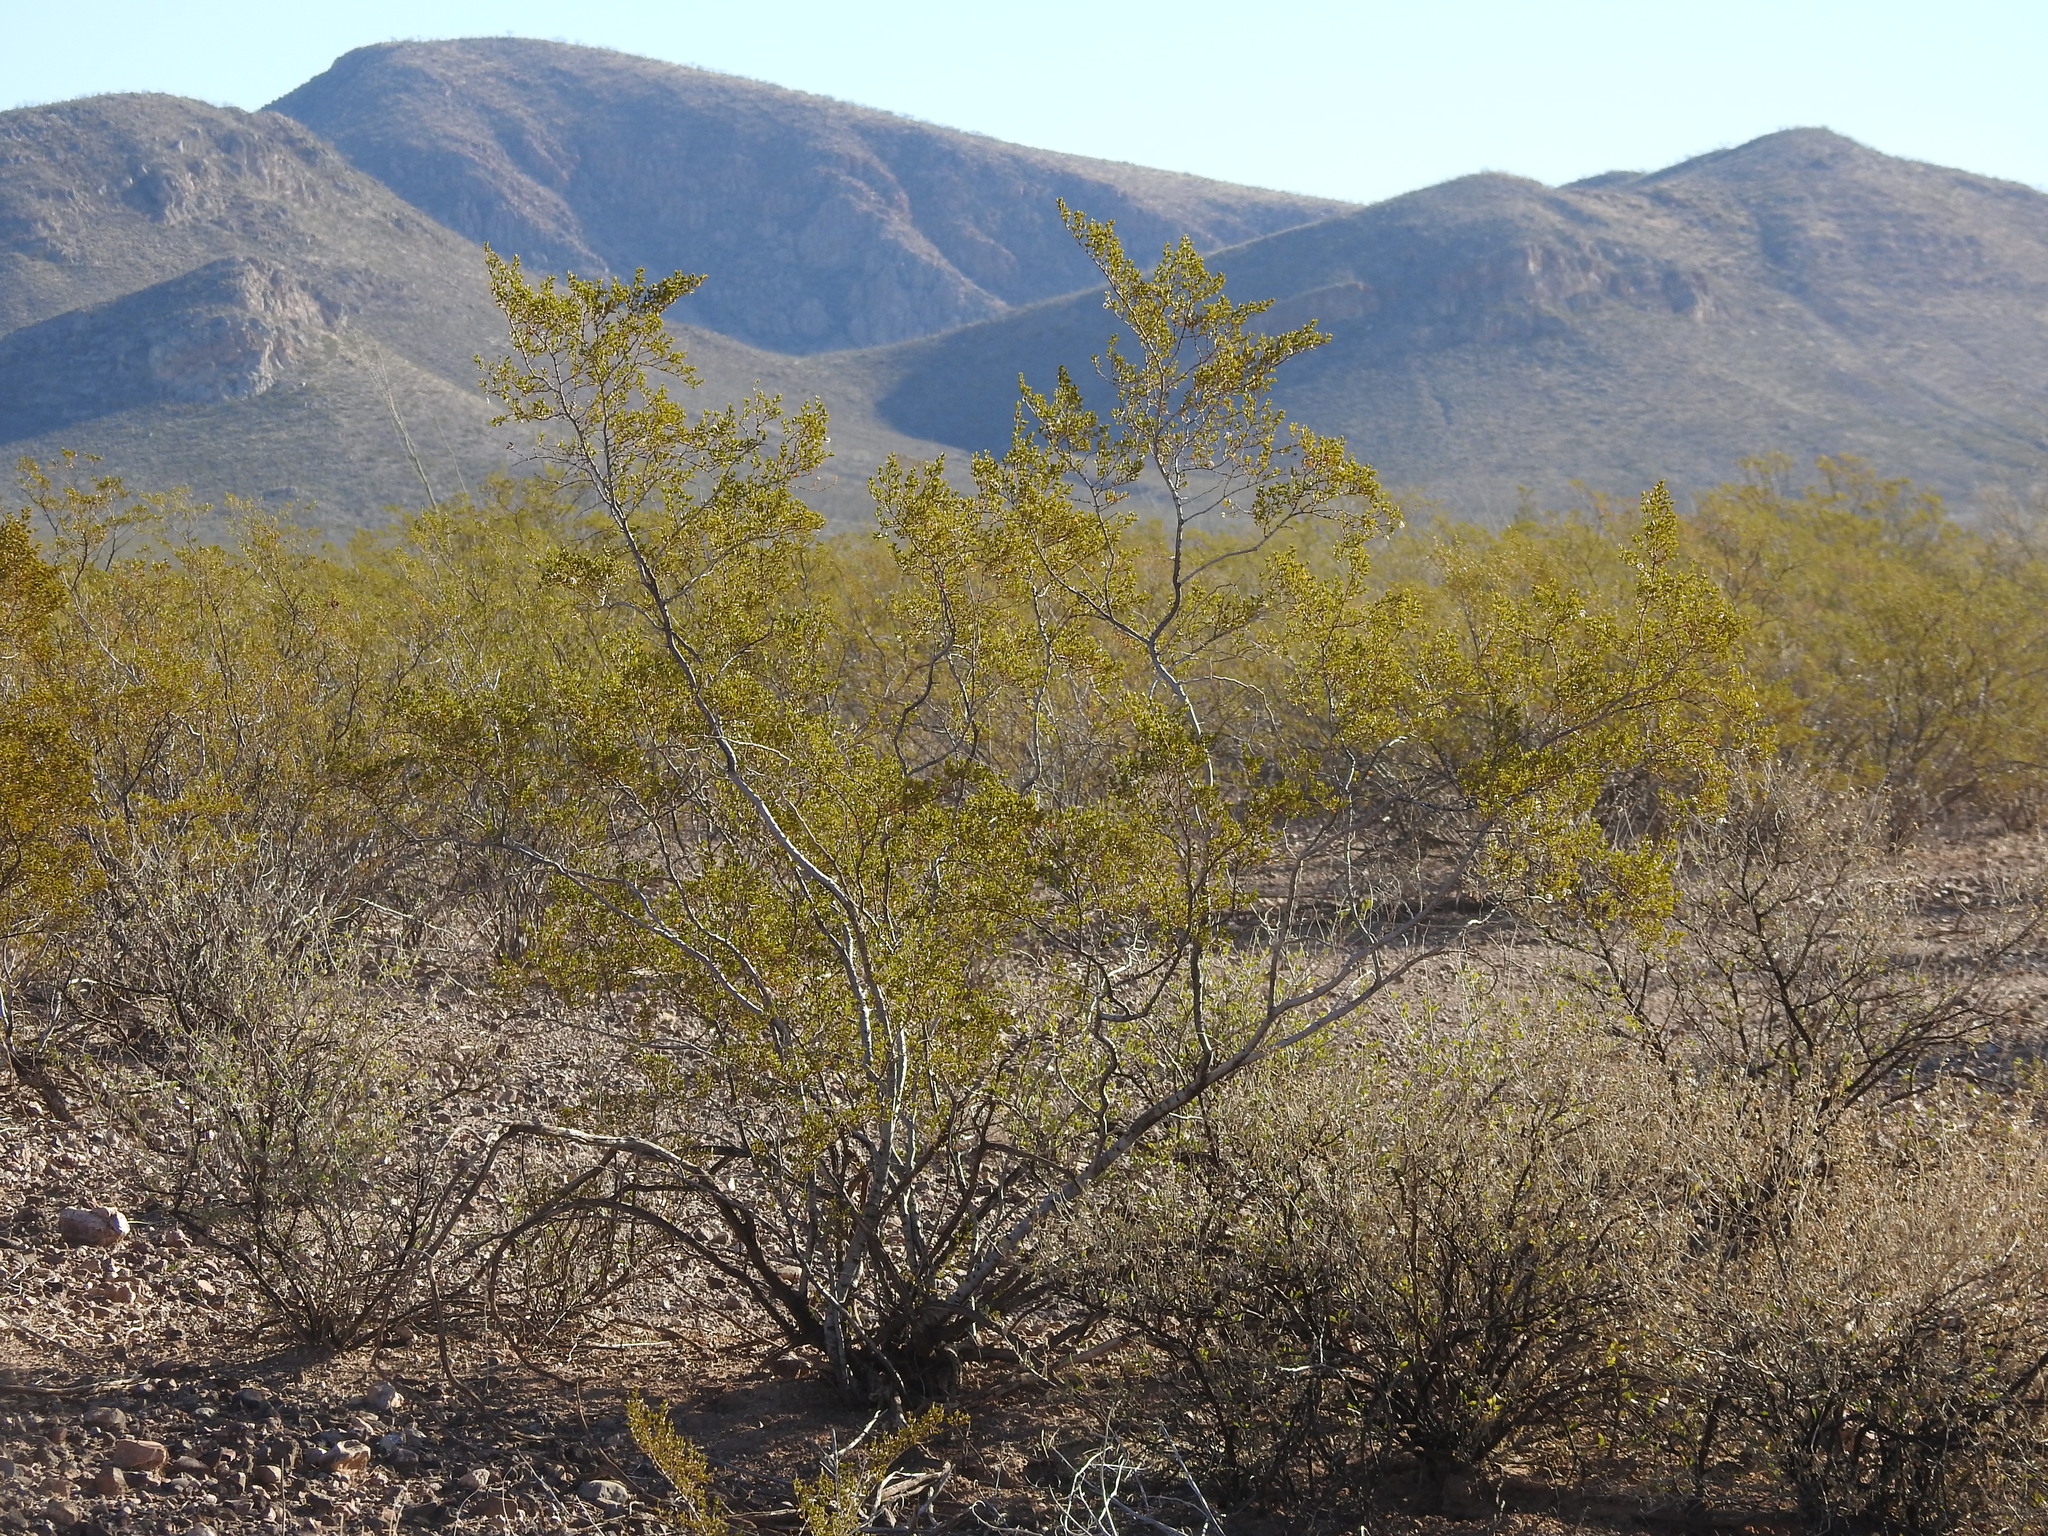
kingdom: Plantae
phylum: Tracheophyta
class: Magnoliopsida
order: Zygophyllales
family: Zygophyllaceae
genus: Larrea
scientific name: Larrea tridentata
